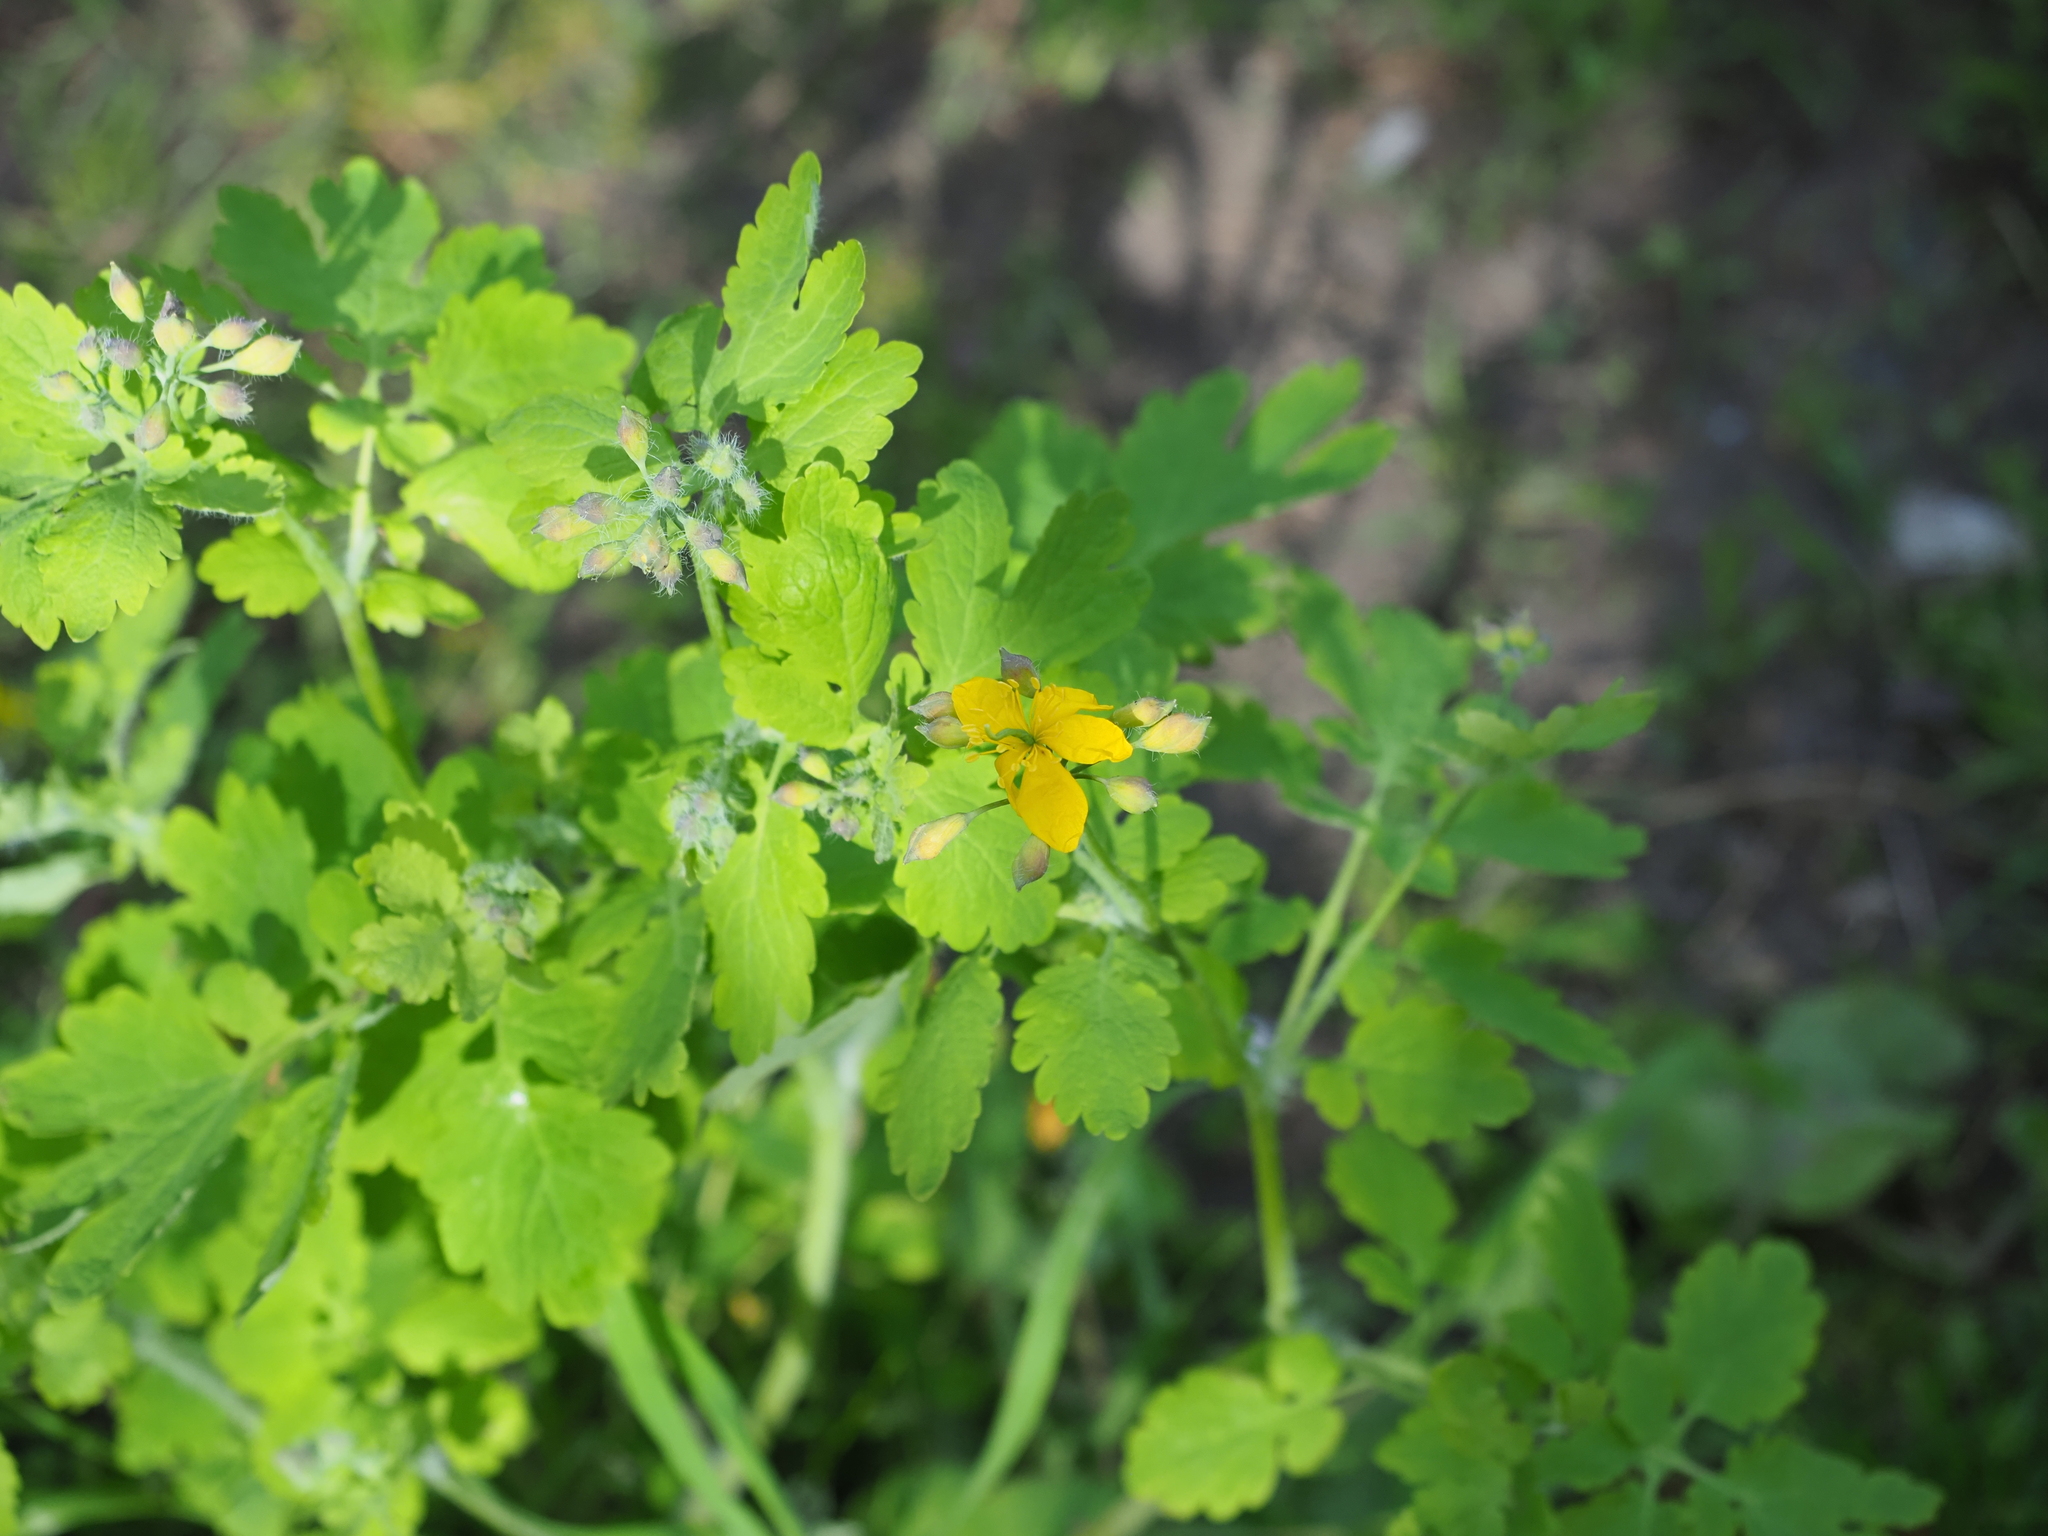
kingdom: Plantae
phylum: Tracheophyta
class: Magnoliopsida
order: Ranunculales
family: Papaveraceae
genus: Chelidonium
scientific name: Chelidonium majus
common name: Greater celandine
